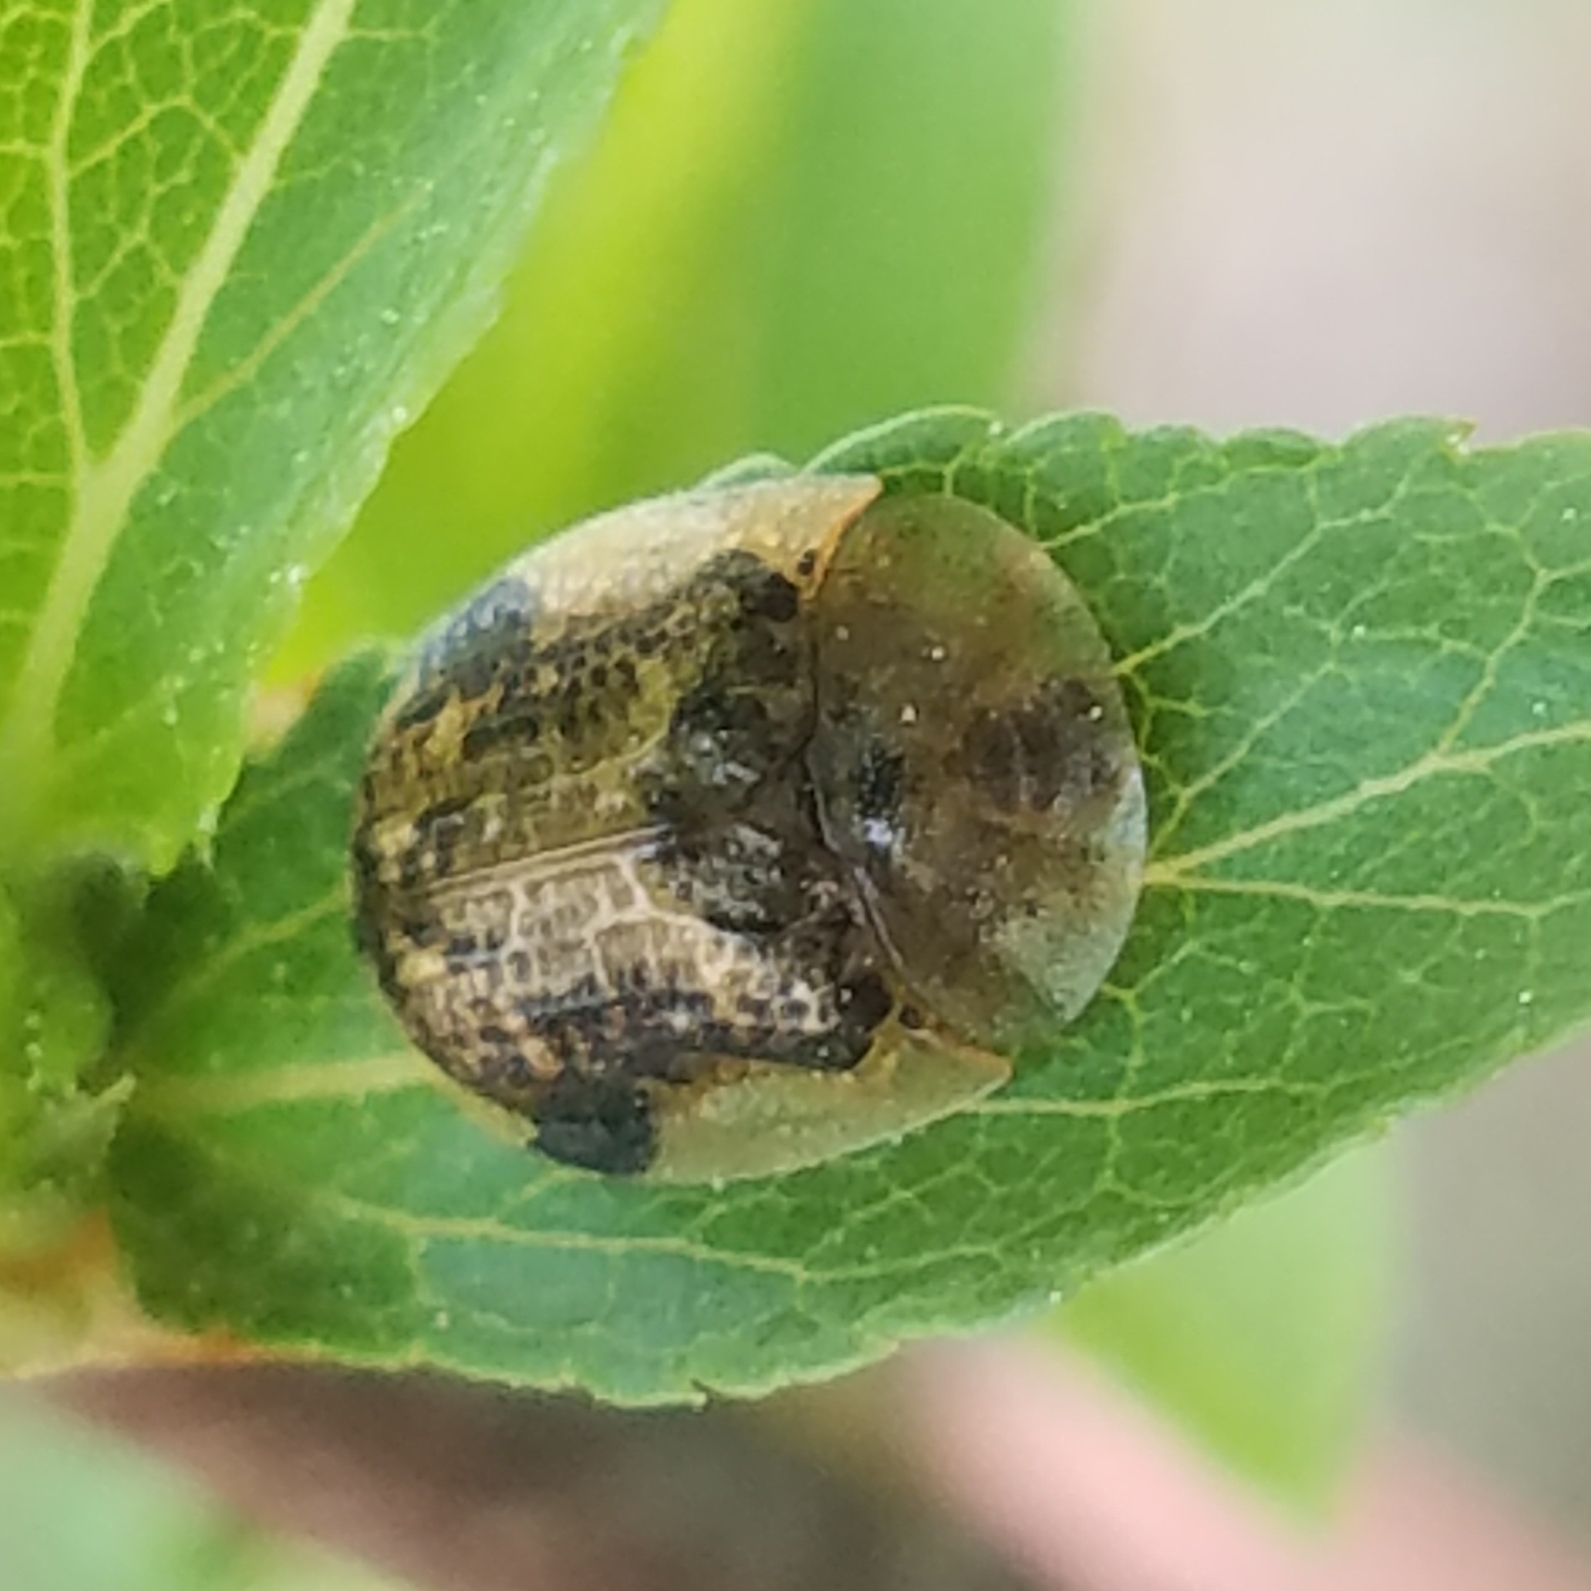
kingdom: Animalia
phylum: Arthropoda
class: Insecta
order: Coleoptera
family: Chrysomelidae
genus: Cassida
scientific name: Cassida piperata
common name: Small tortoise beetle
